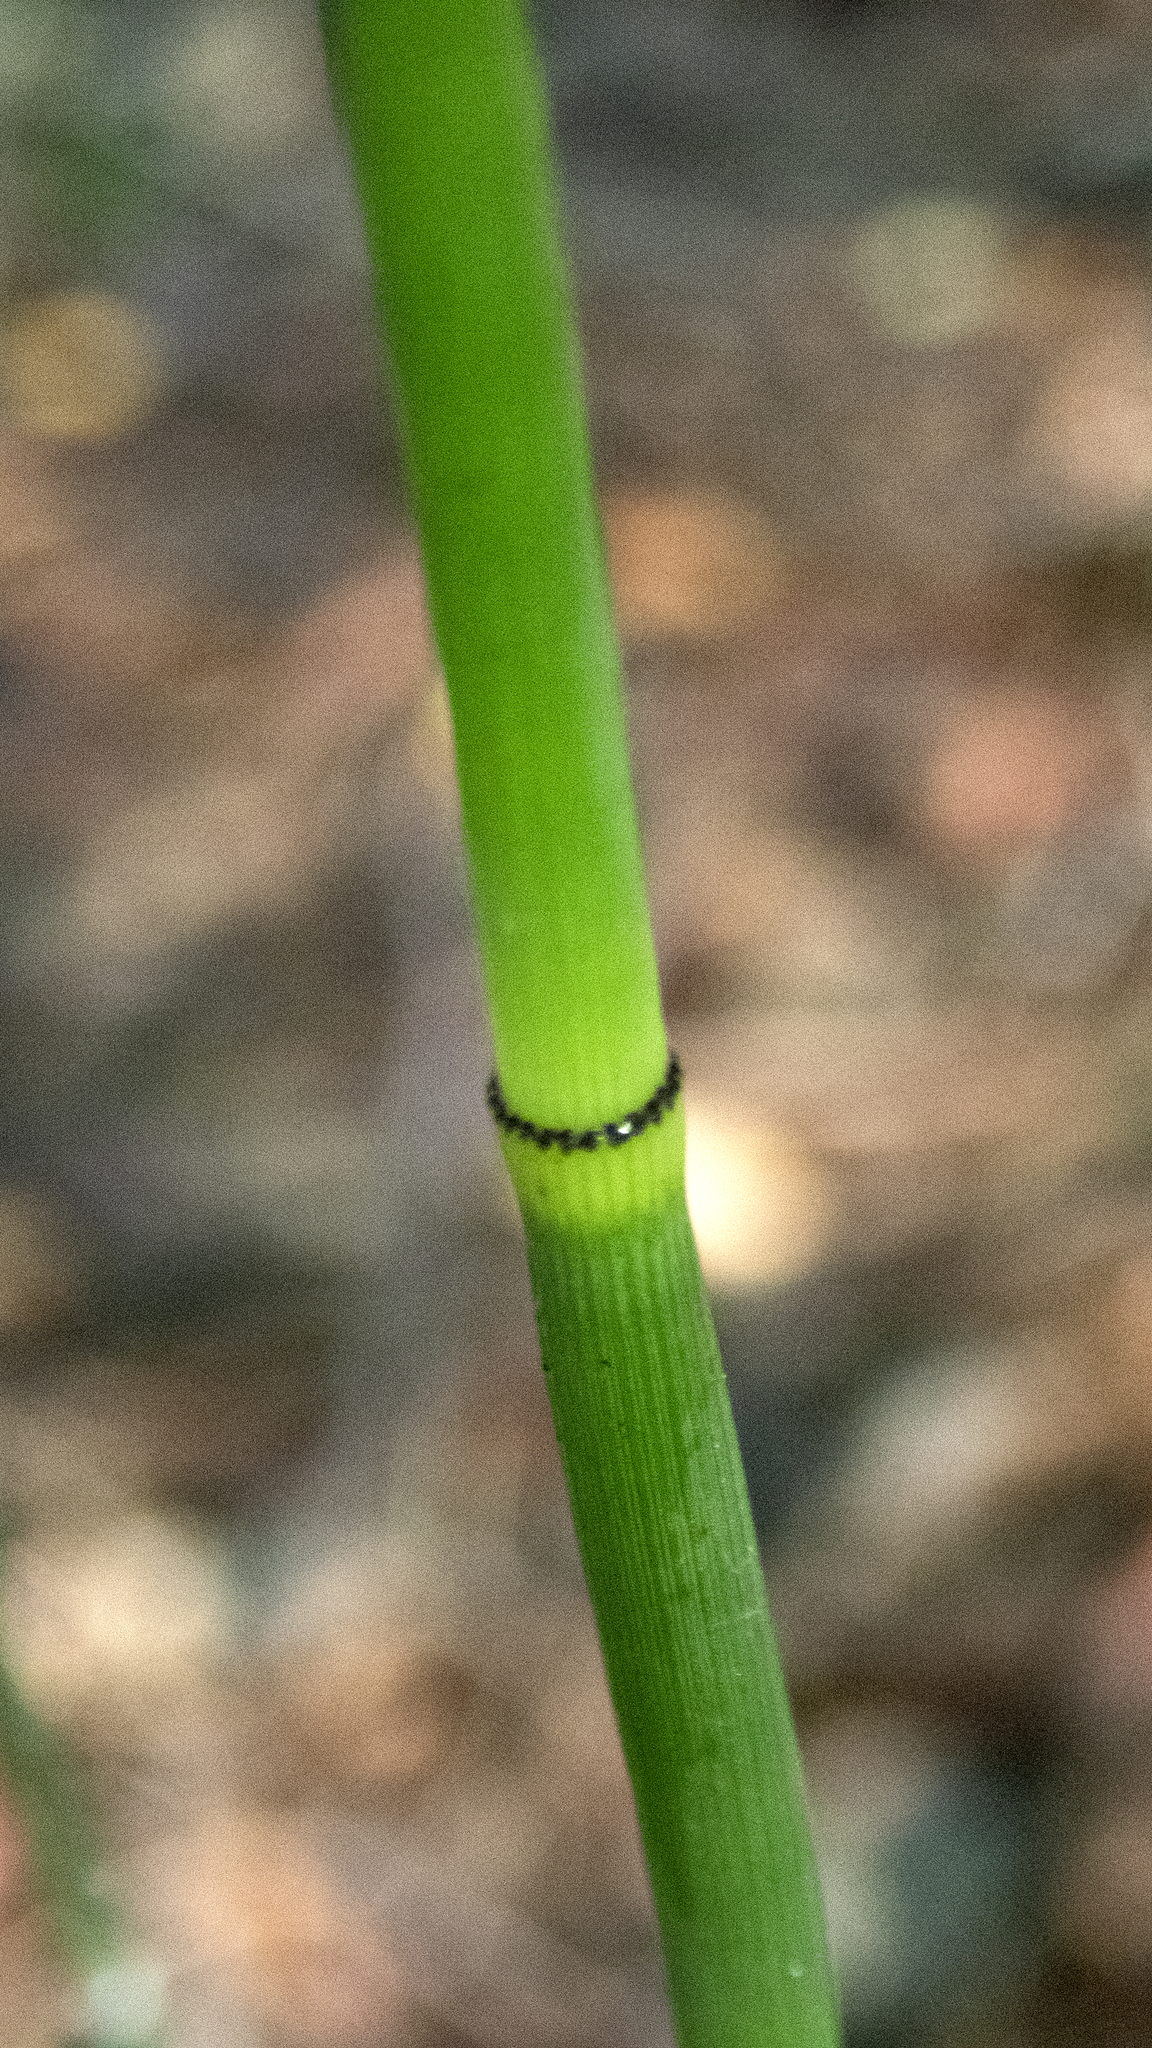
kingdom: Plantae
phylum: Tracheophyta
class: Polypodiopsida
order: Equisetales
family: Equisetaceae
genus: Equisetum
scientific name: Equisetum praealtum
